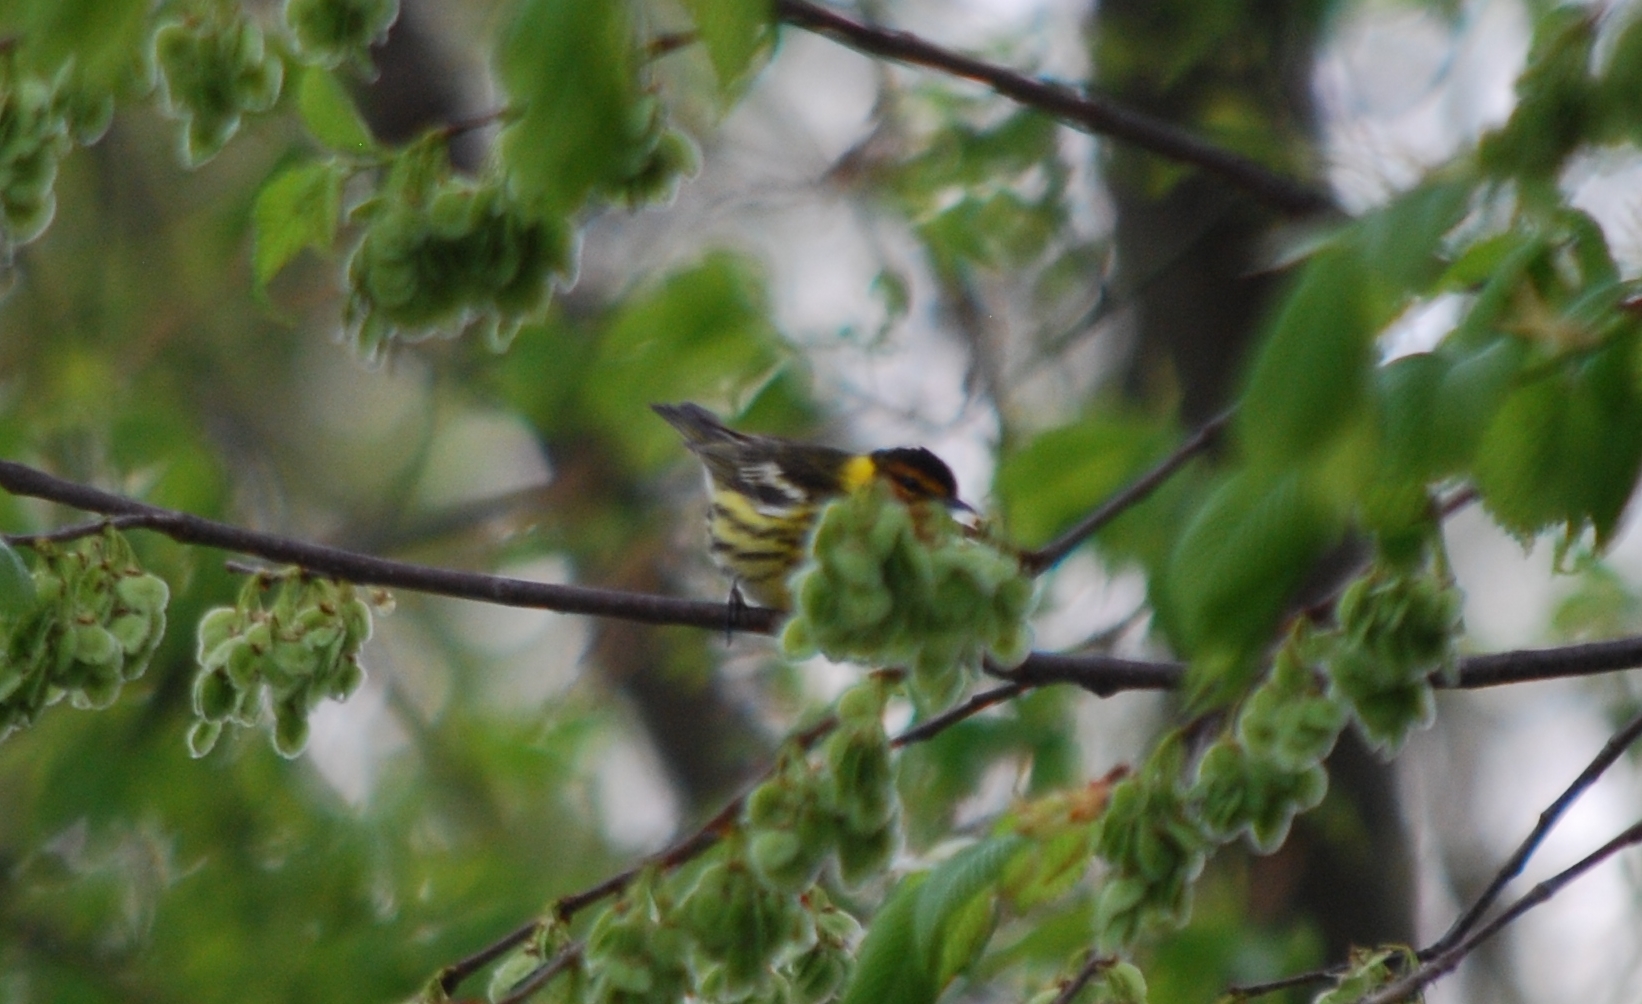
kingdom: Animalia
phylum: Chordata
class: Aves
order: Passeriformes
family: Parulidae
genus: Setophaga
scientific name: Setophaga tigrina
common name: Cape may warbler
